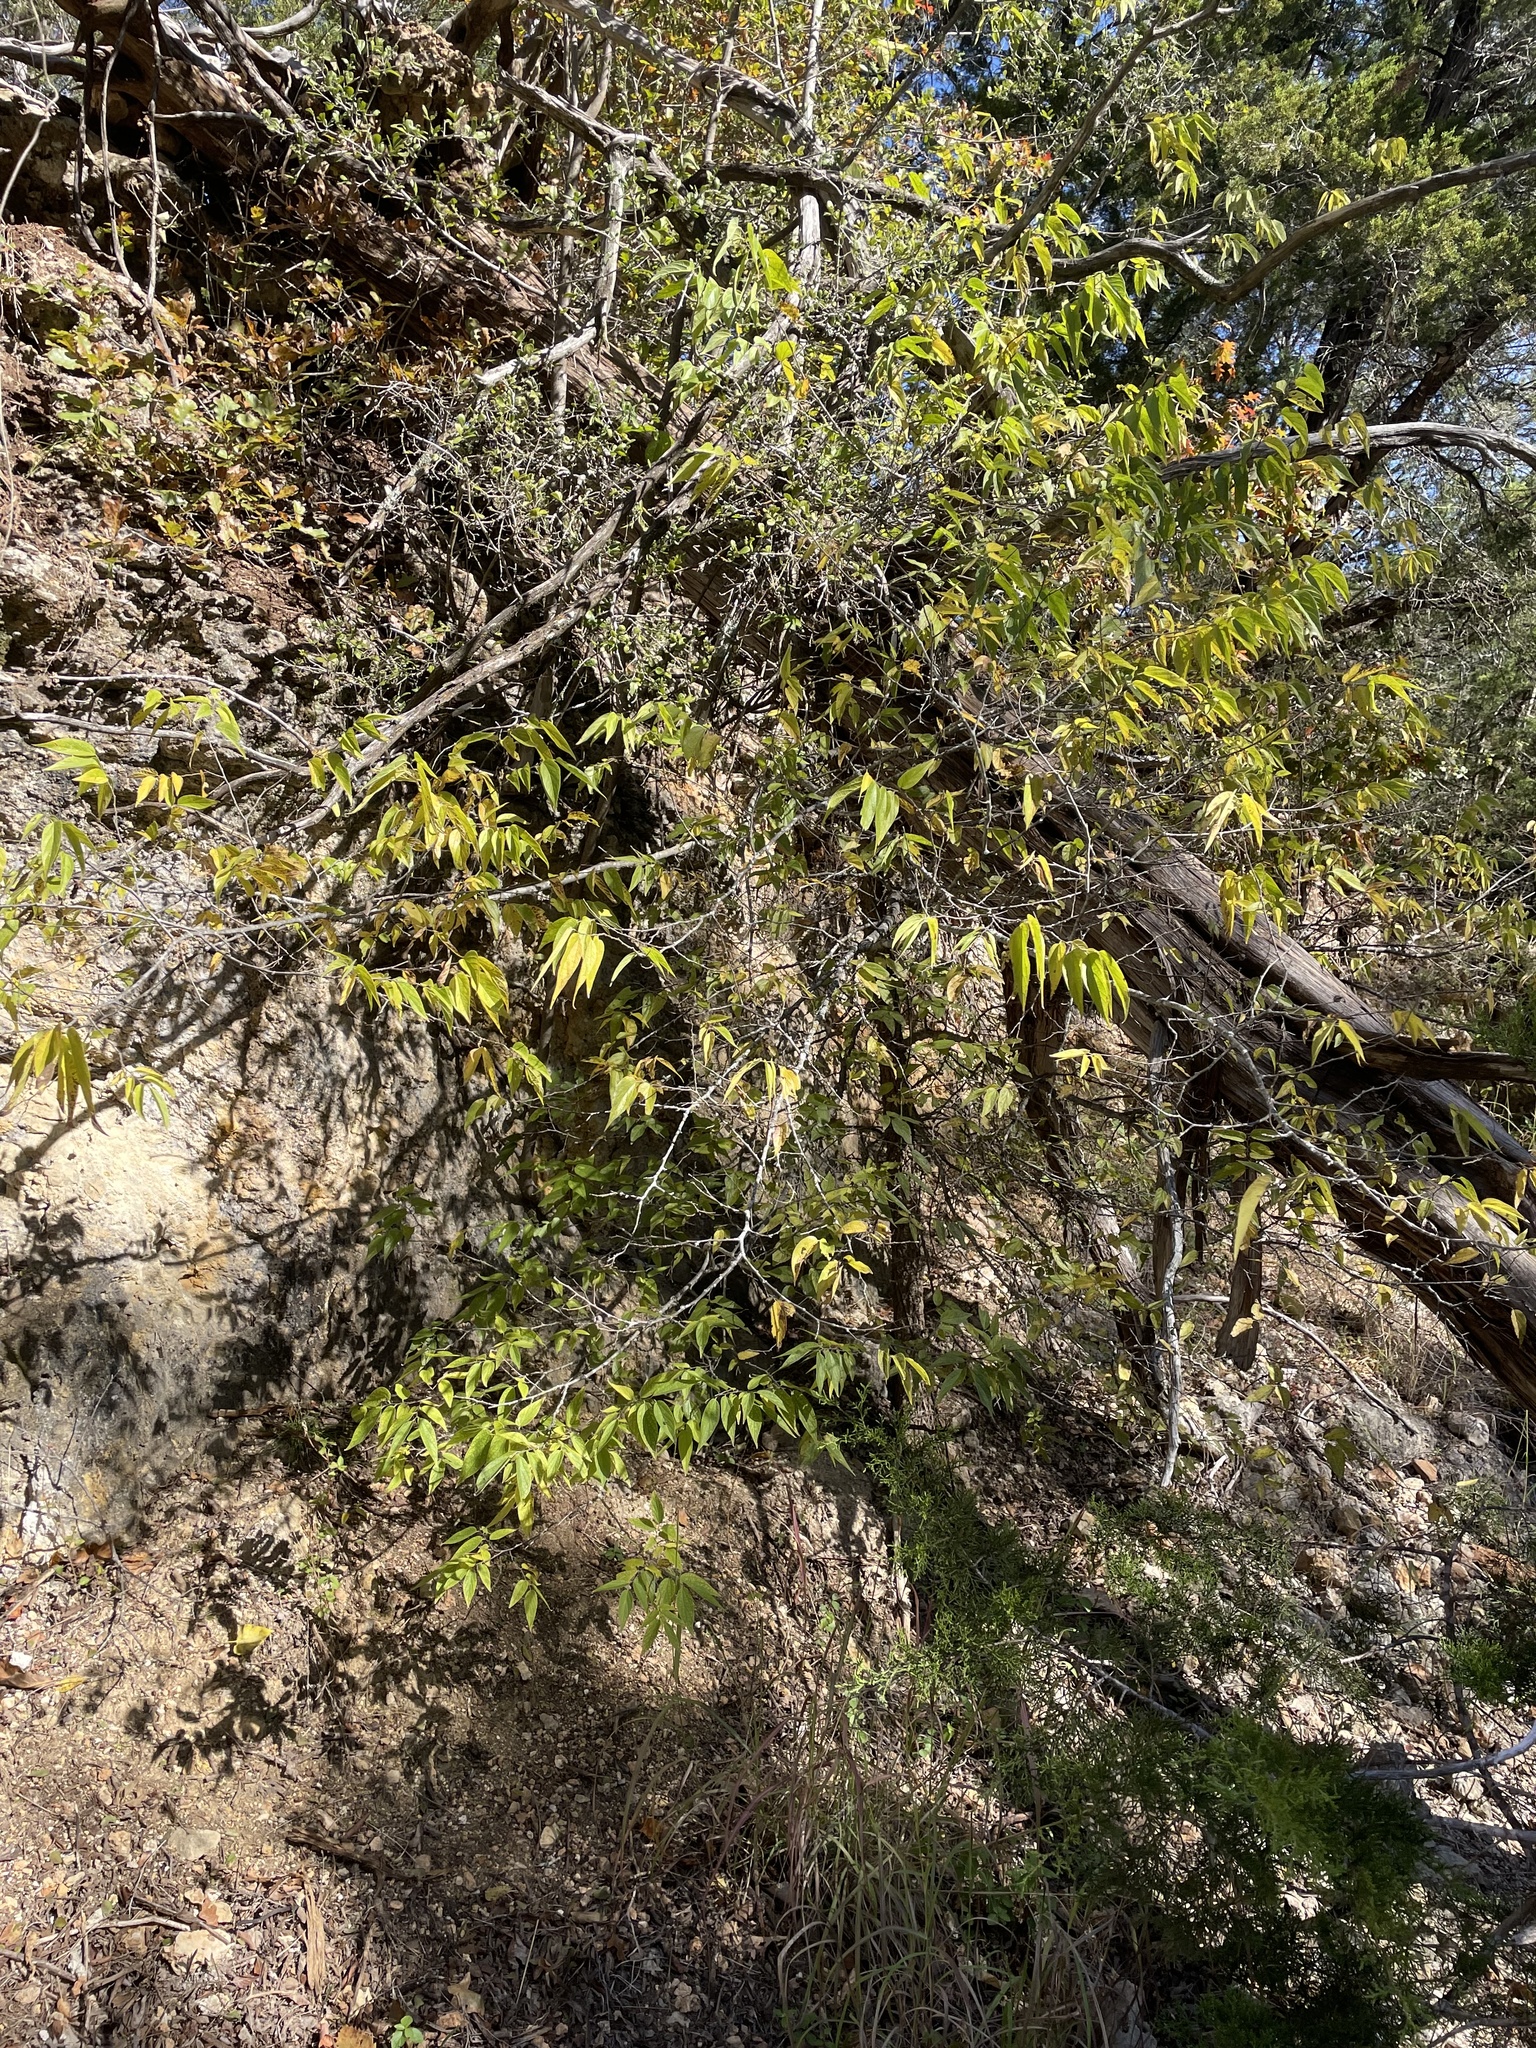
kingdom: Plantae
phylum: Tracheophyta
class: Magnoliopsida
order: Rosales
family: Cannabaceae
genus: Celtis
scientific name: Celtis laevigata
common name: Sugarberry
